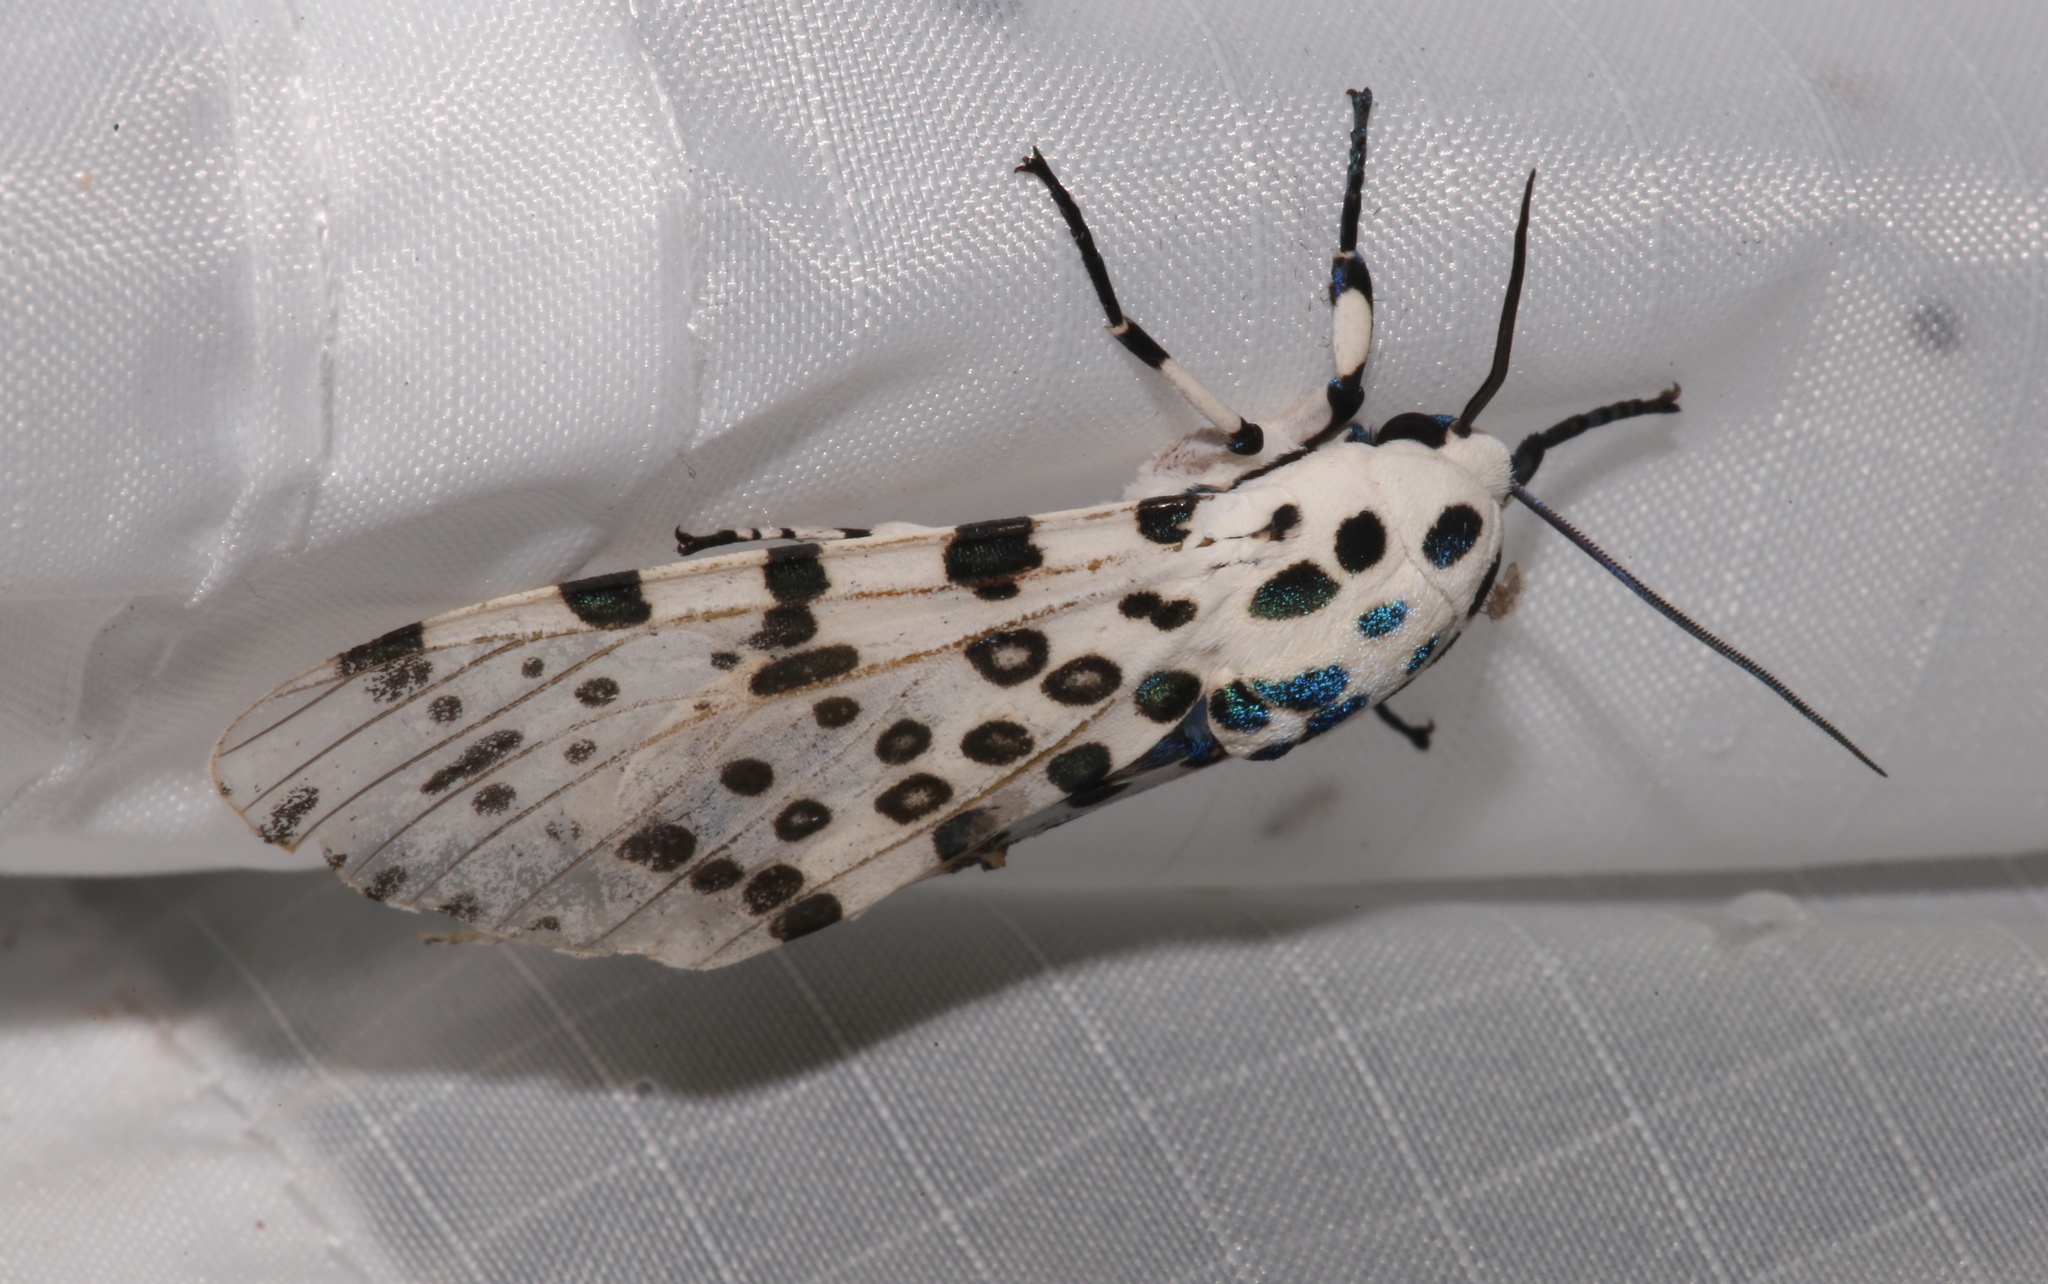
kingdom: Animalia
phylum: Arthropoda
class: Insecta
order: Lepidoptera
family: Erebidae
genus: Hypercompe
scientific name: Hypercompe scribonia
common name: Giant leopard moth
